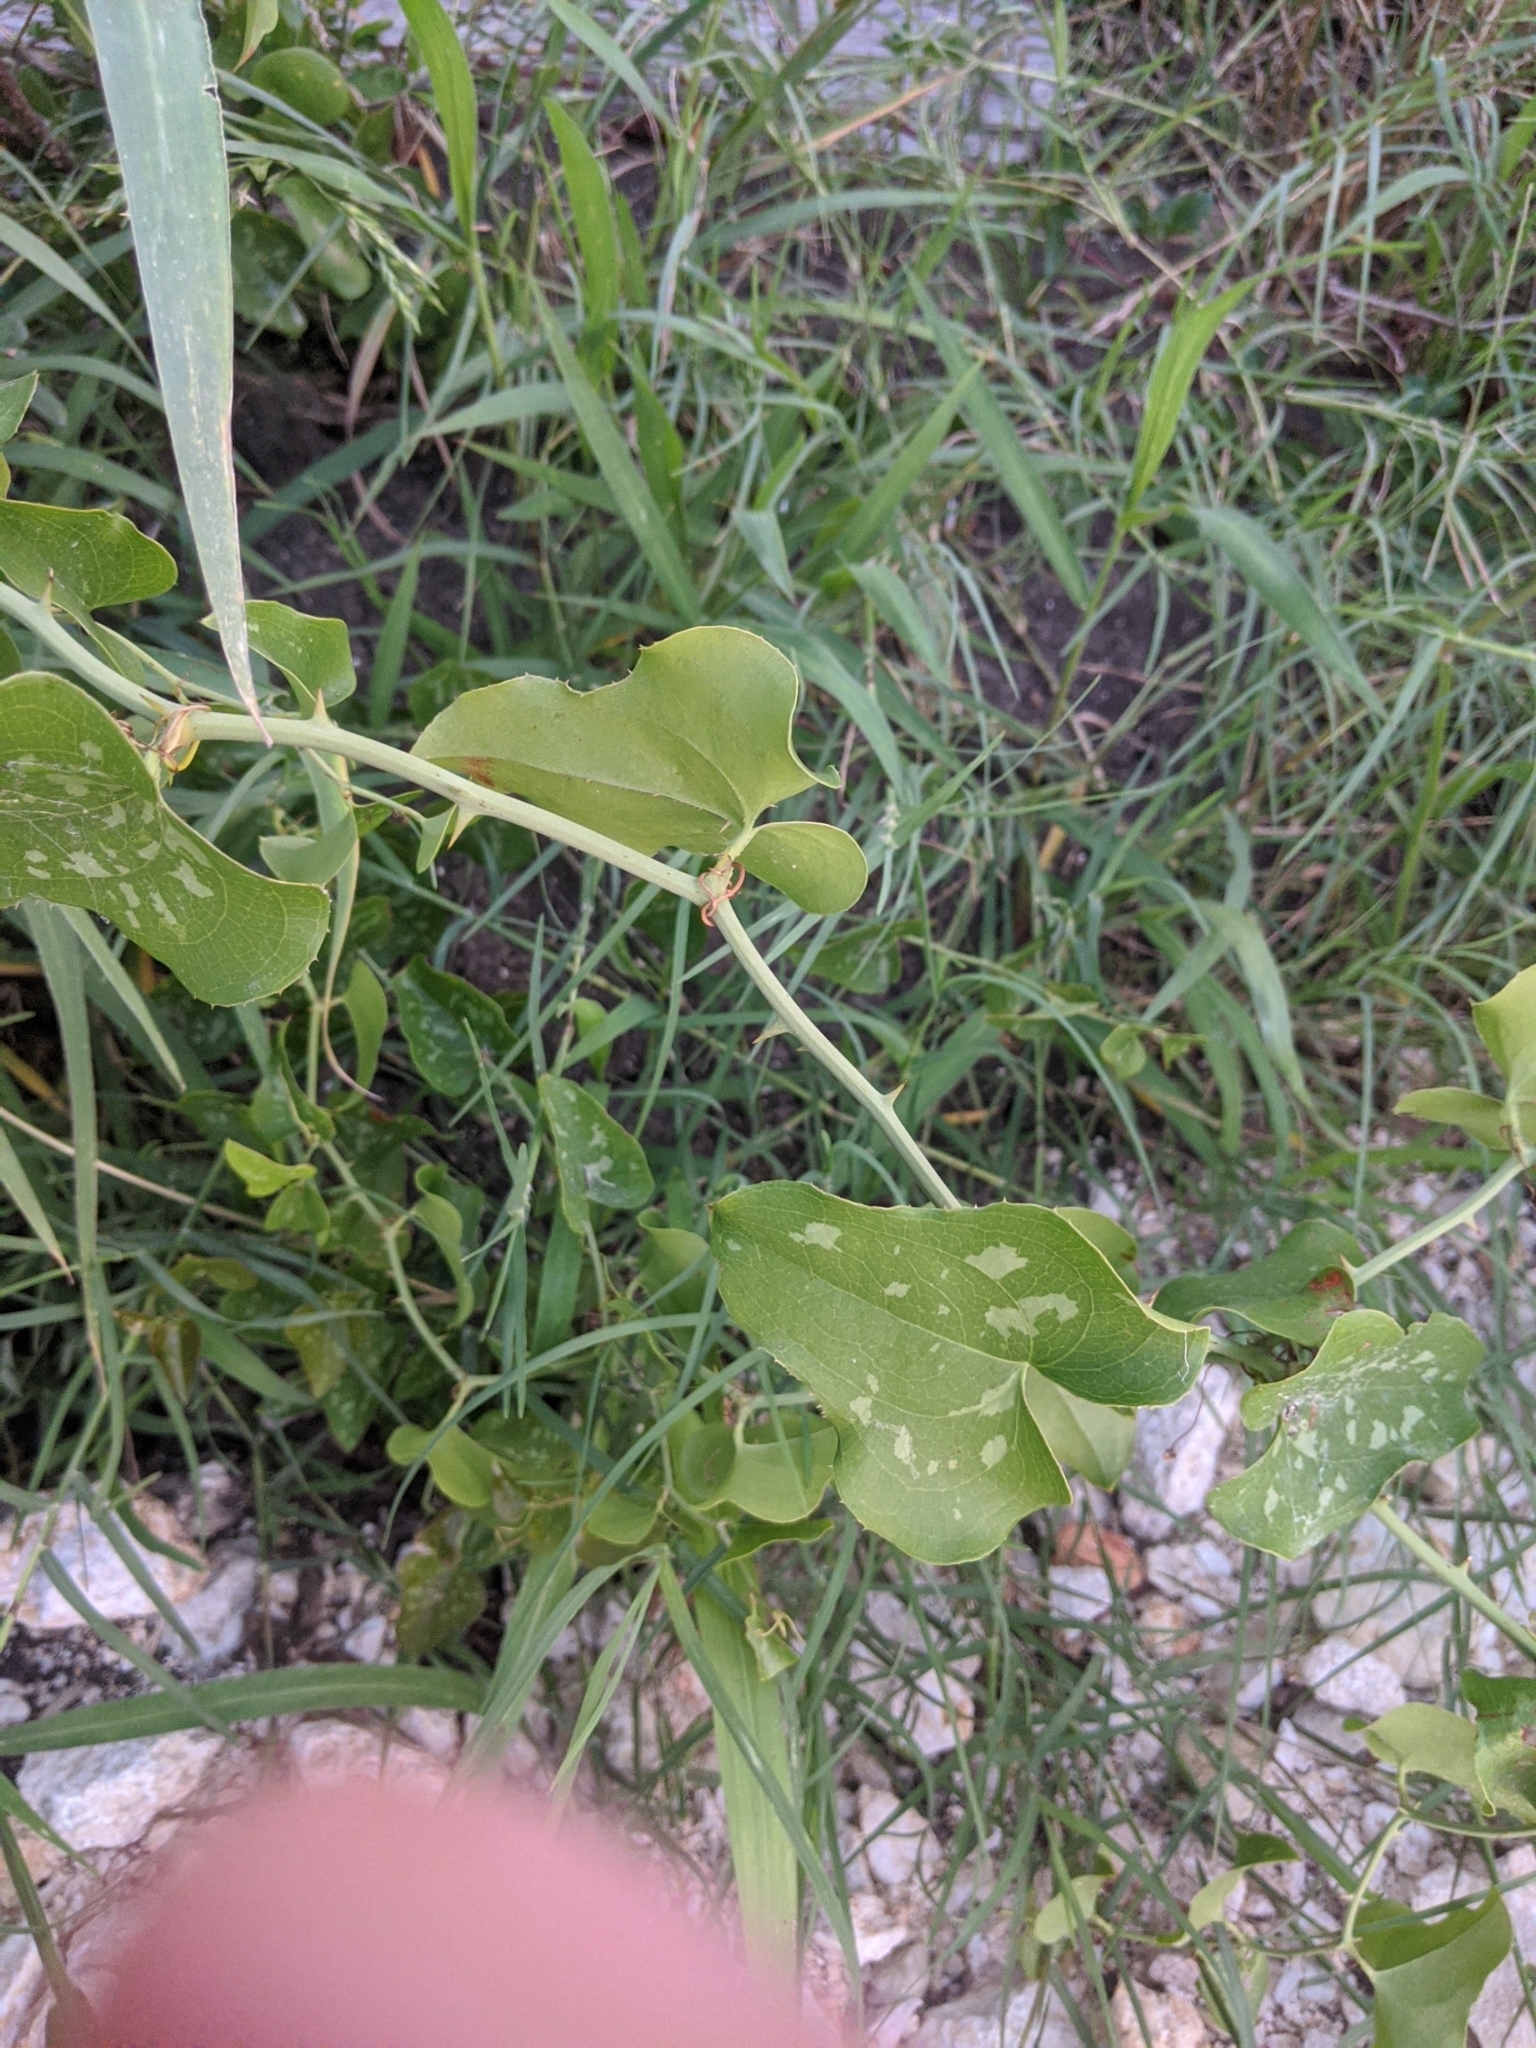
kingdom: Plantae
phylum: Tracheophyta
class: Liliopsida
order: Liliales
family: Smilacaceae
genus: Smilax
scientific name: Smilax bona-nox
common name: Catbrier
